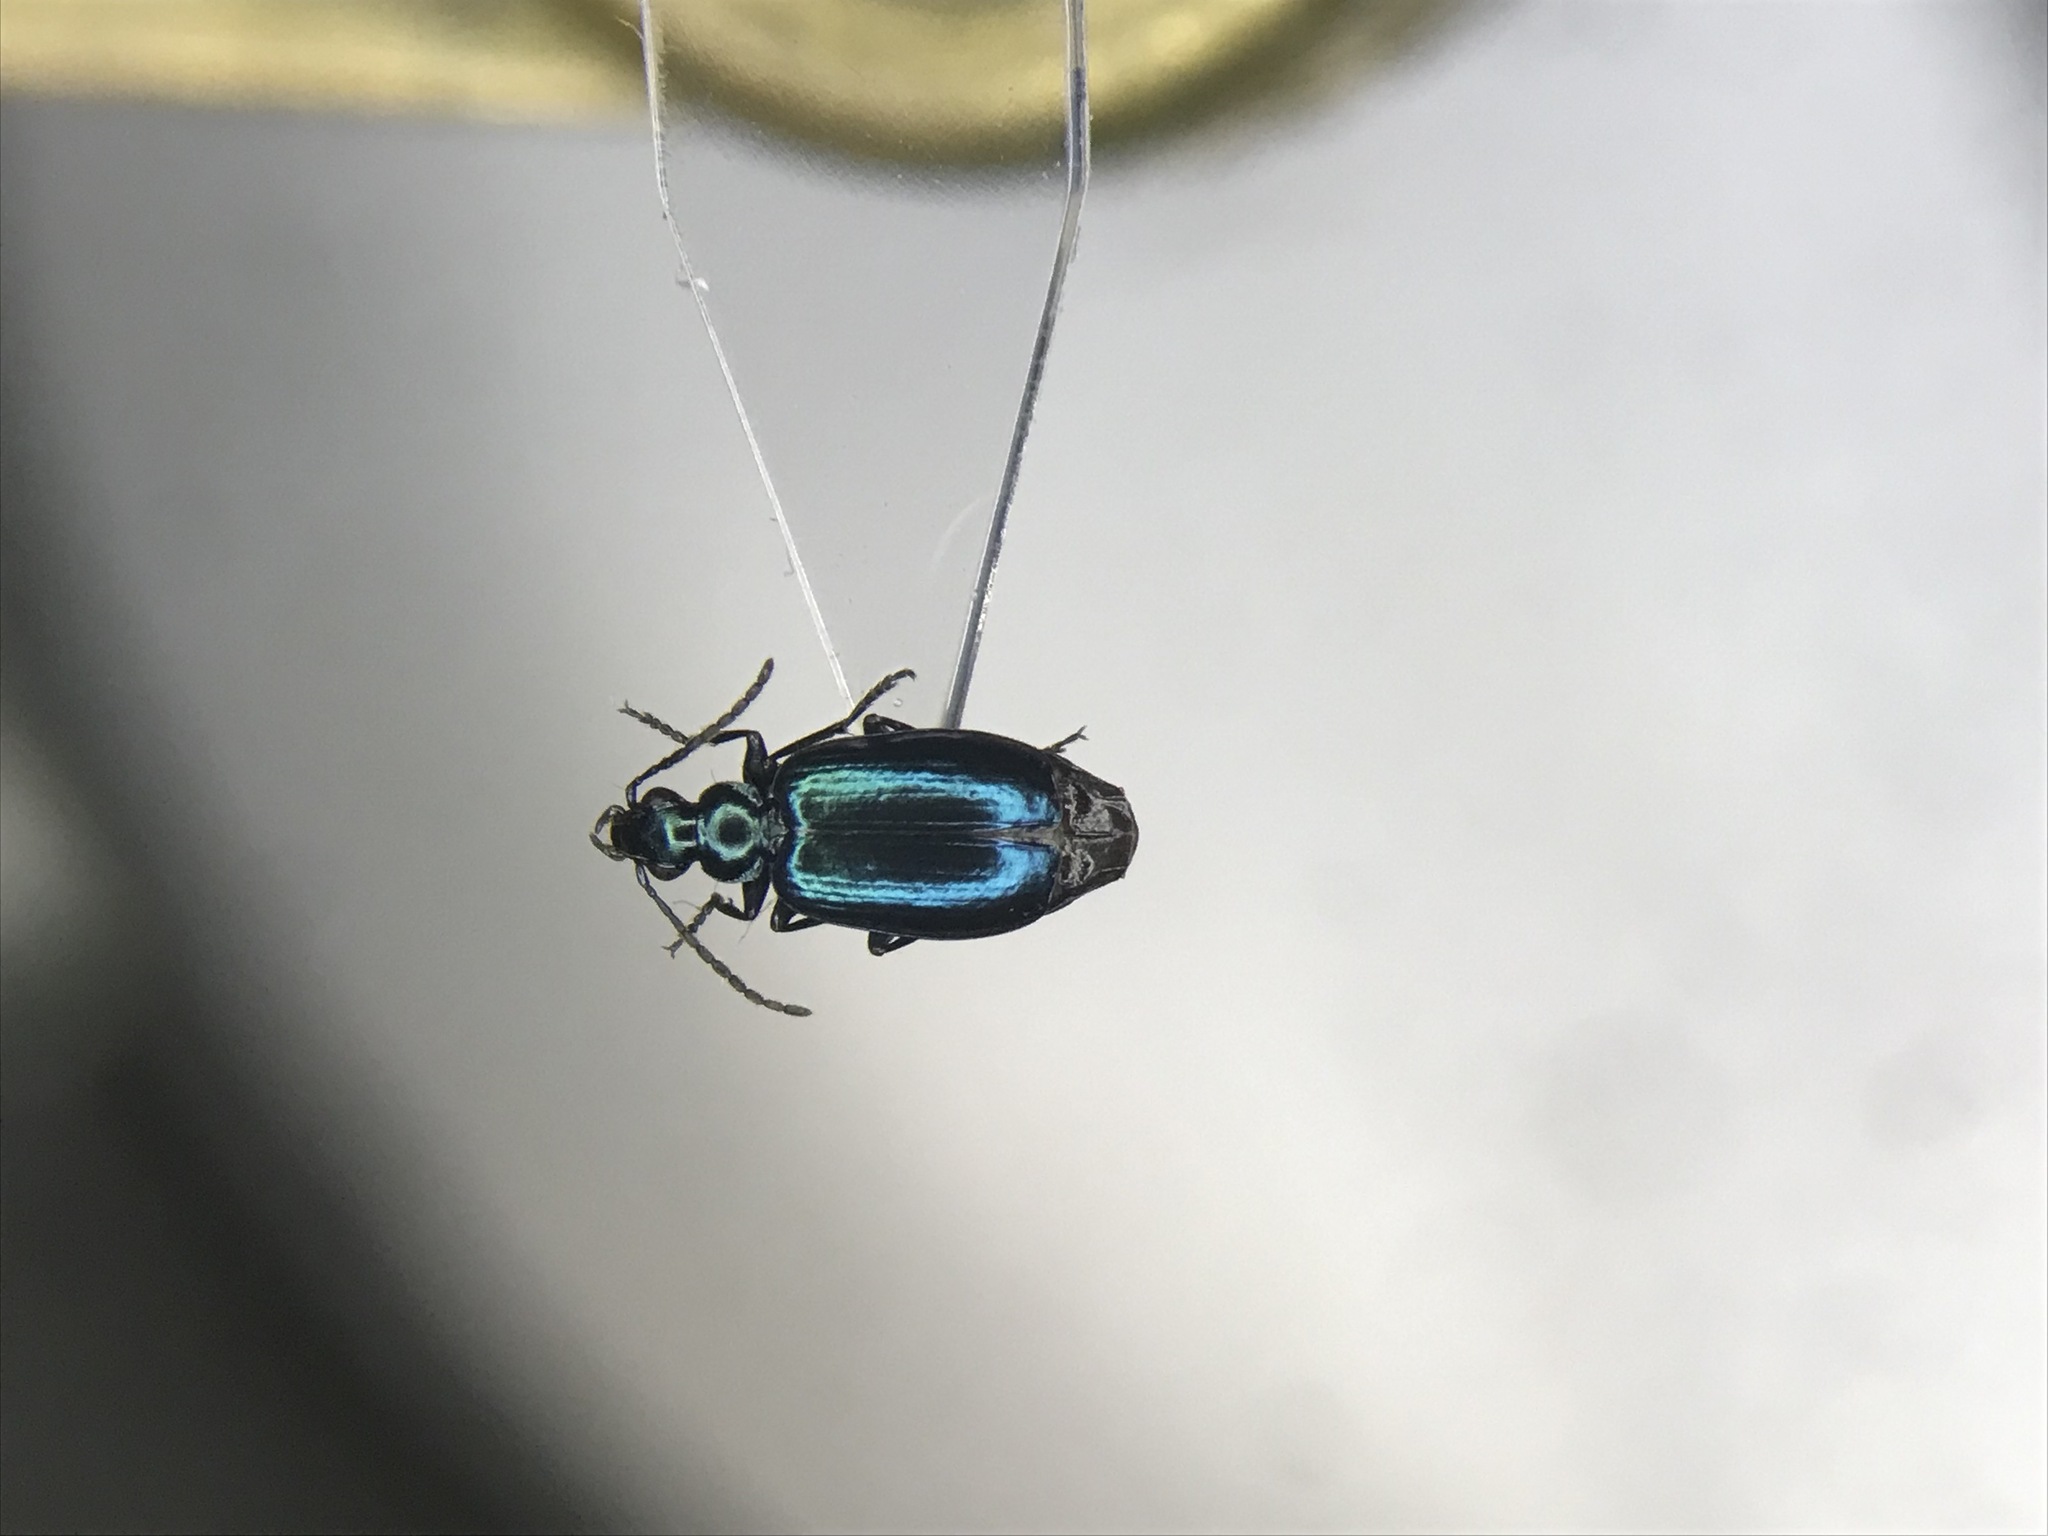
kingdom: Animalia
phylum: Arthropoda
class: Insecta
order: Coleoptera
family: Carabidae
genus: Lebia
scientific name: Lebia viridis
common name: Flower lebia beetle
